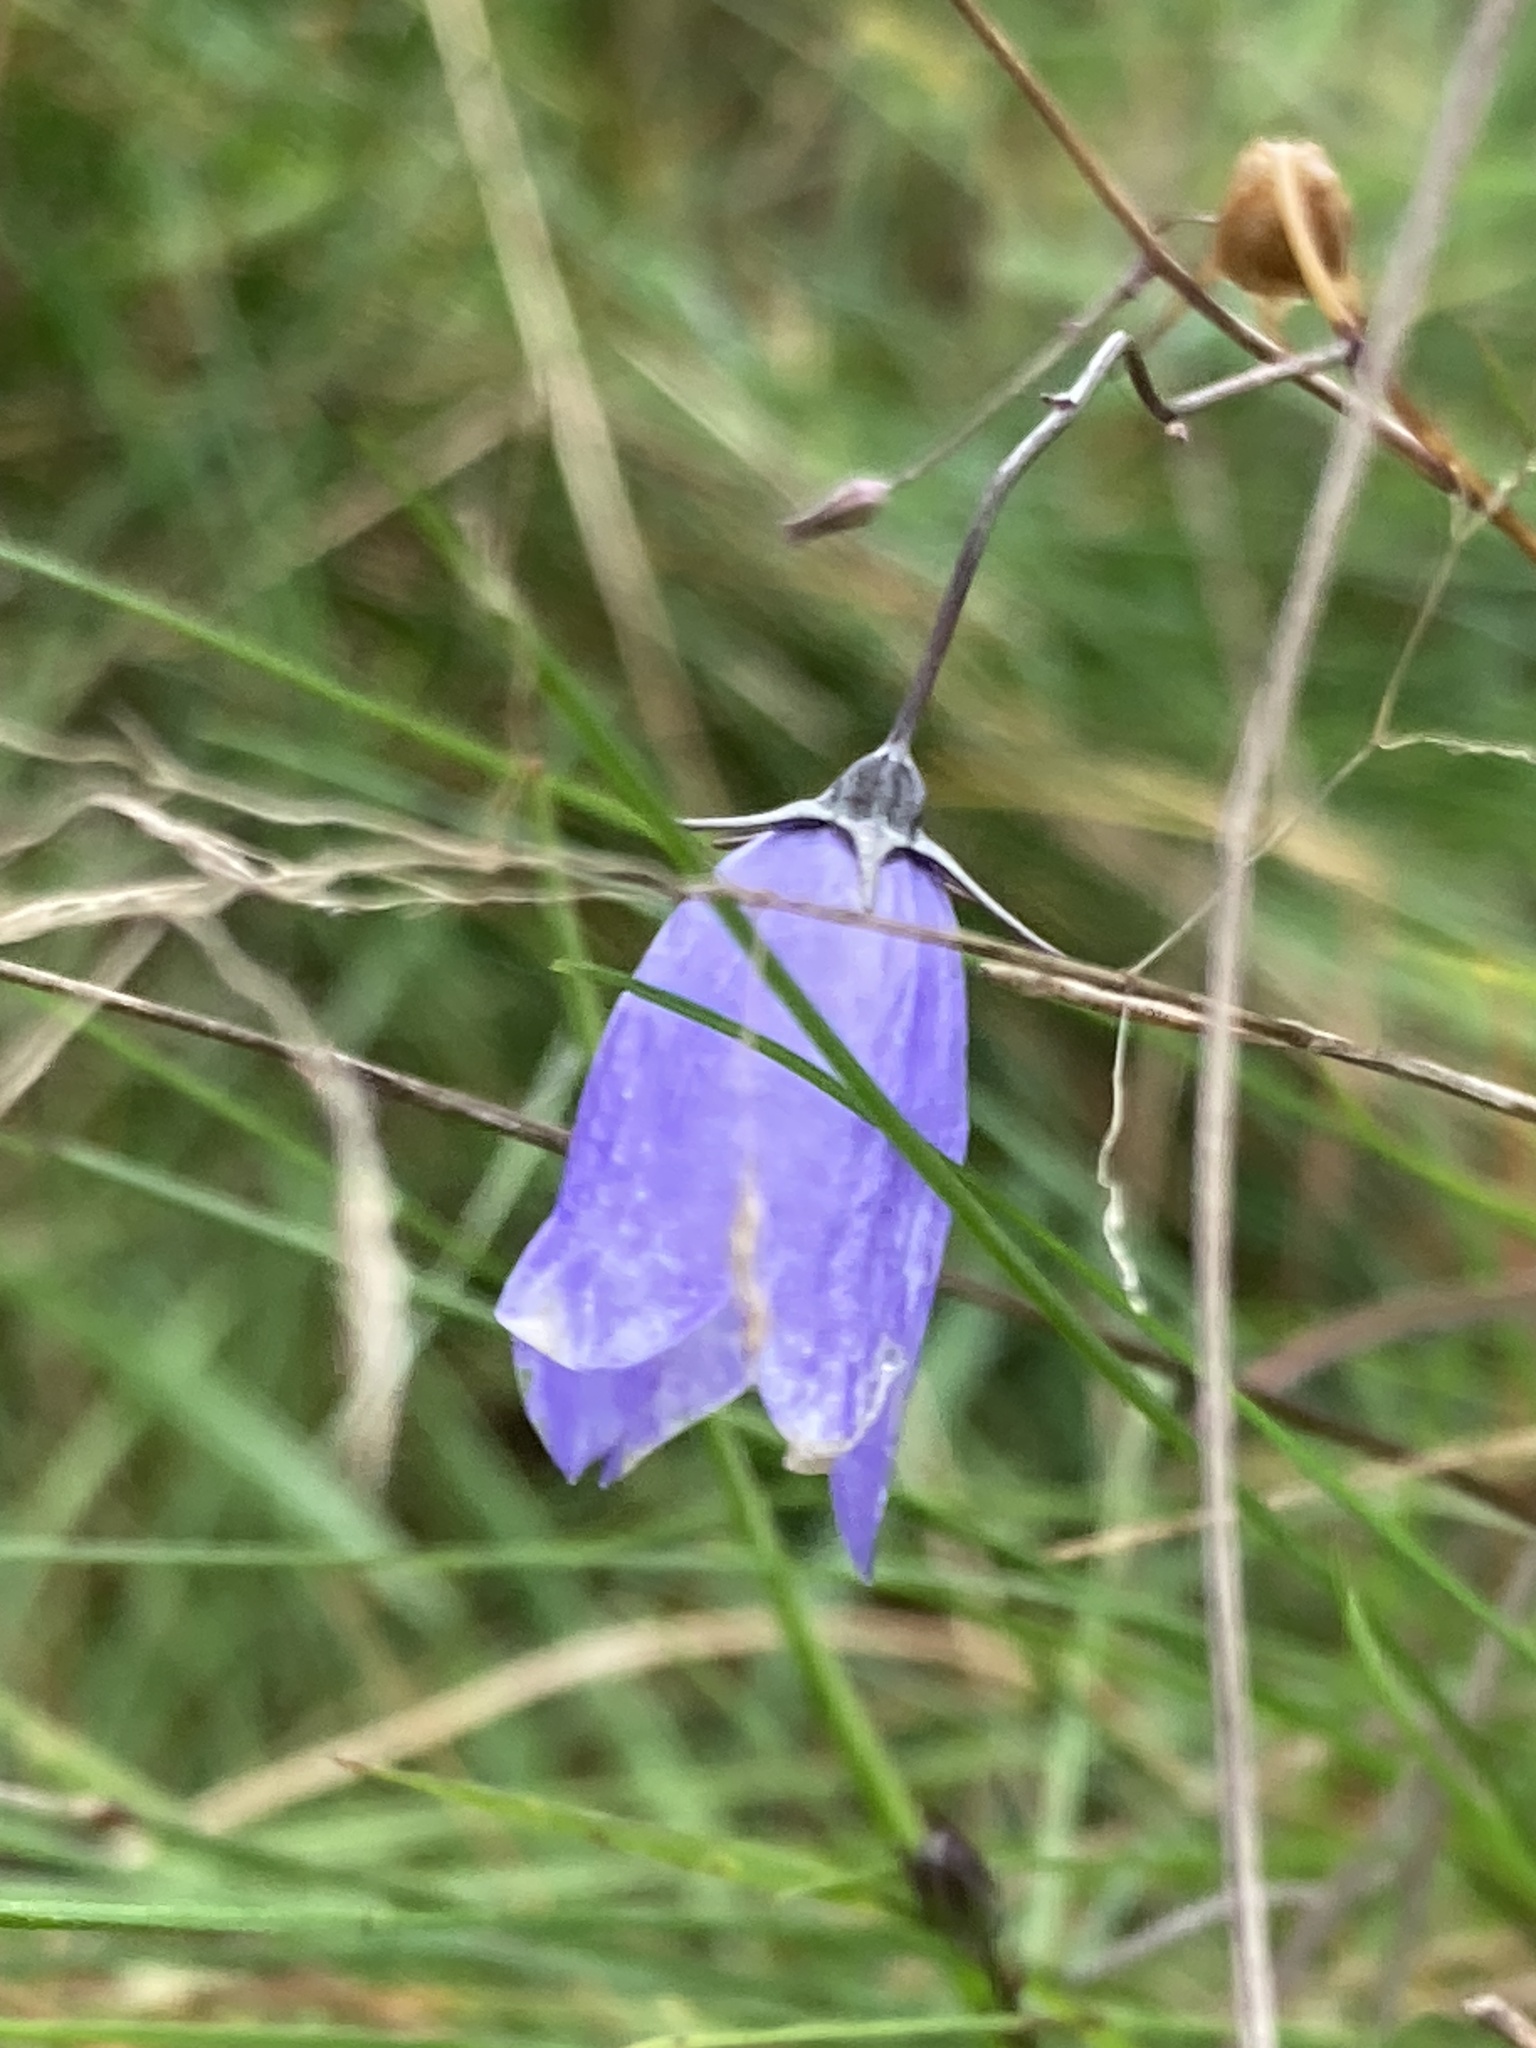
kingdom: Plantae
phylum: Tracheophyta
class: Magnoliopsida
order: Asterales
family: Campanulaceae
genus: Campanula
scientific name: Campanula rotundifolia
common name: Harebell
